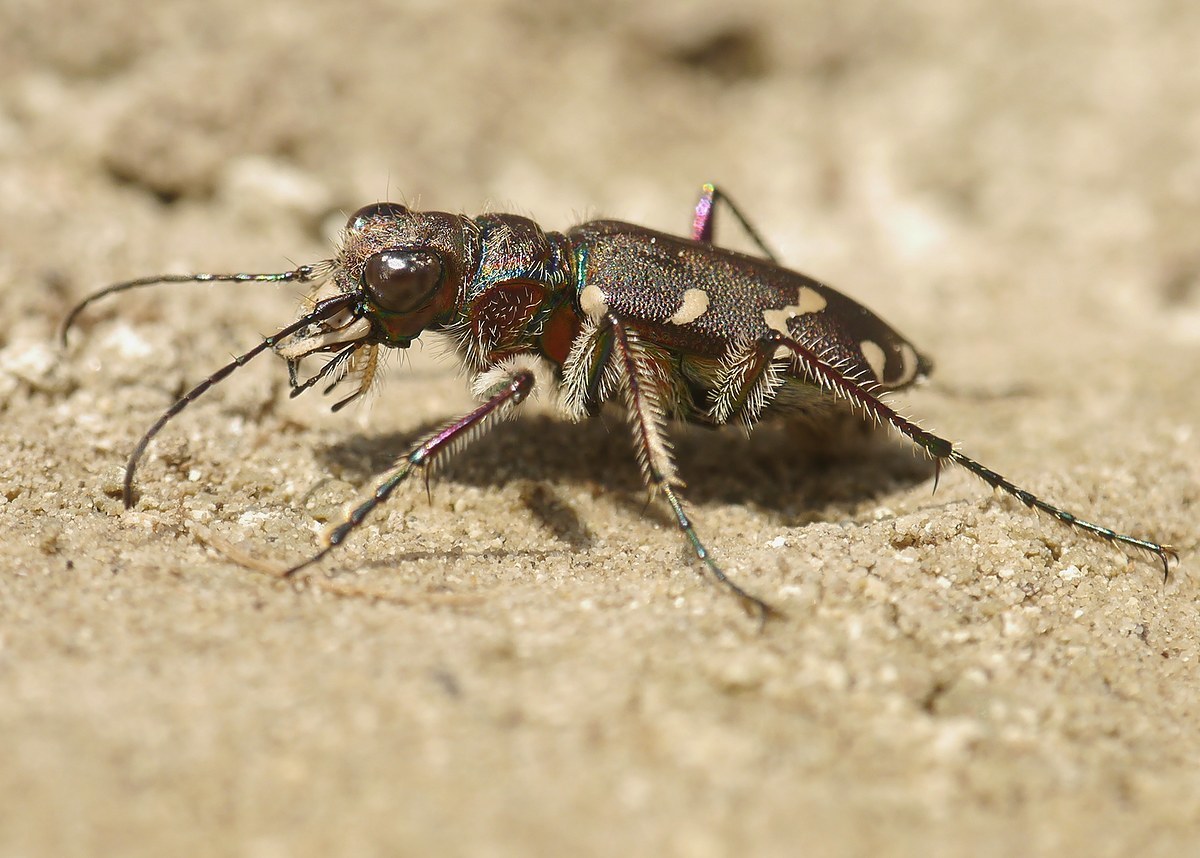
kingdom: Animalia
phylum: Arthropoda
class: Insecta
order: Coleoptera
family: Carabidae
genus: Cicindela
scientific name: Cicindela soluta
